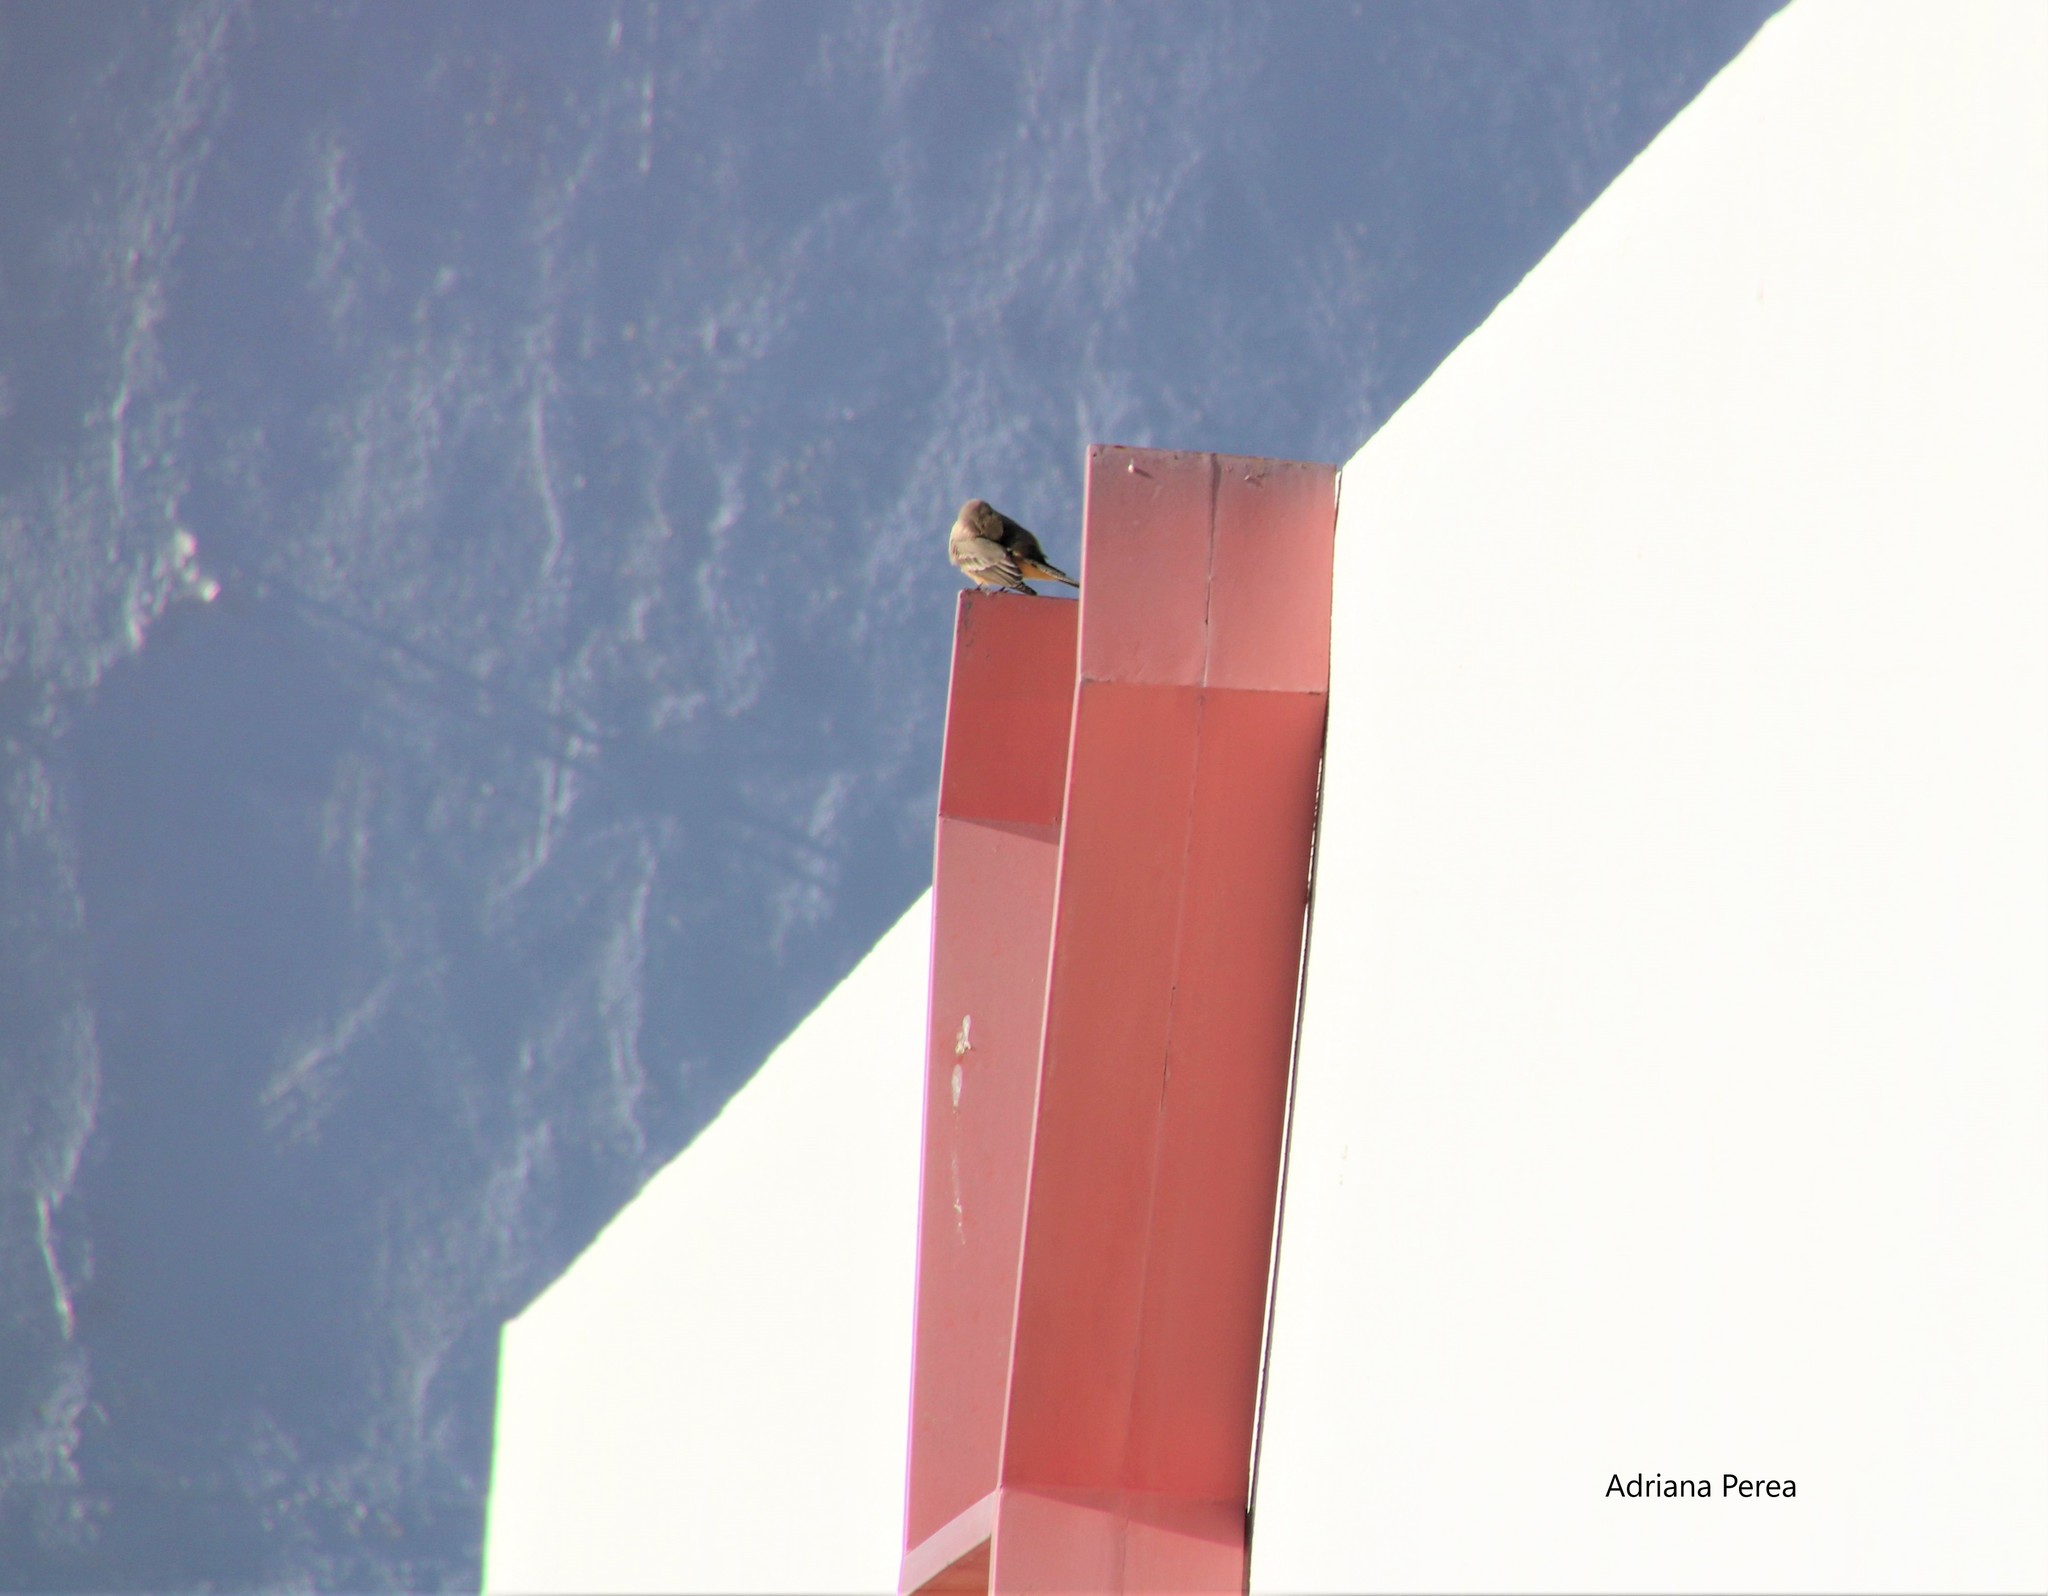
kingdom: Animalia
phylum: Chordata
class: Aves
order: Passeriformes
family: Tyrannidae
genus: Sayornis
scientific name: Sayornis saya
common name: Say's phoebe
